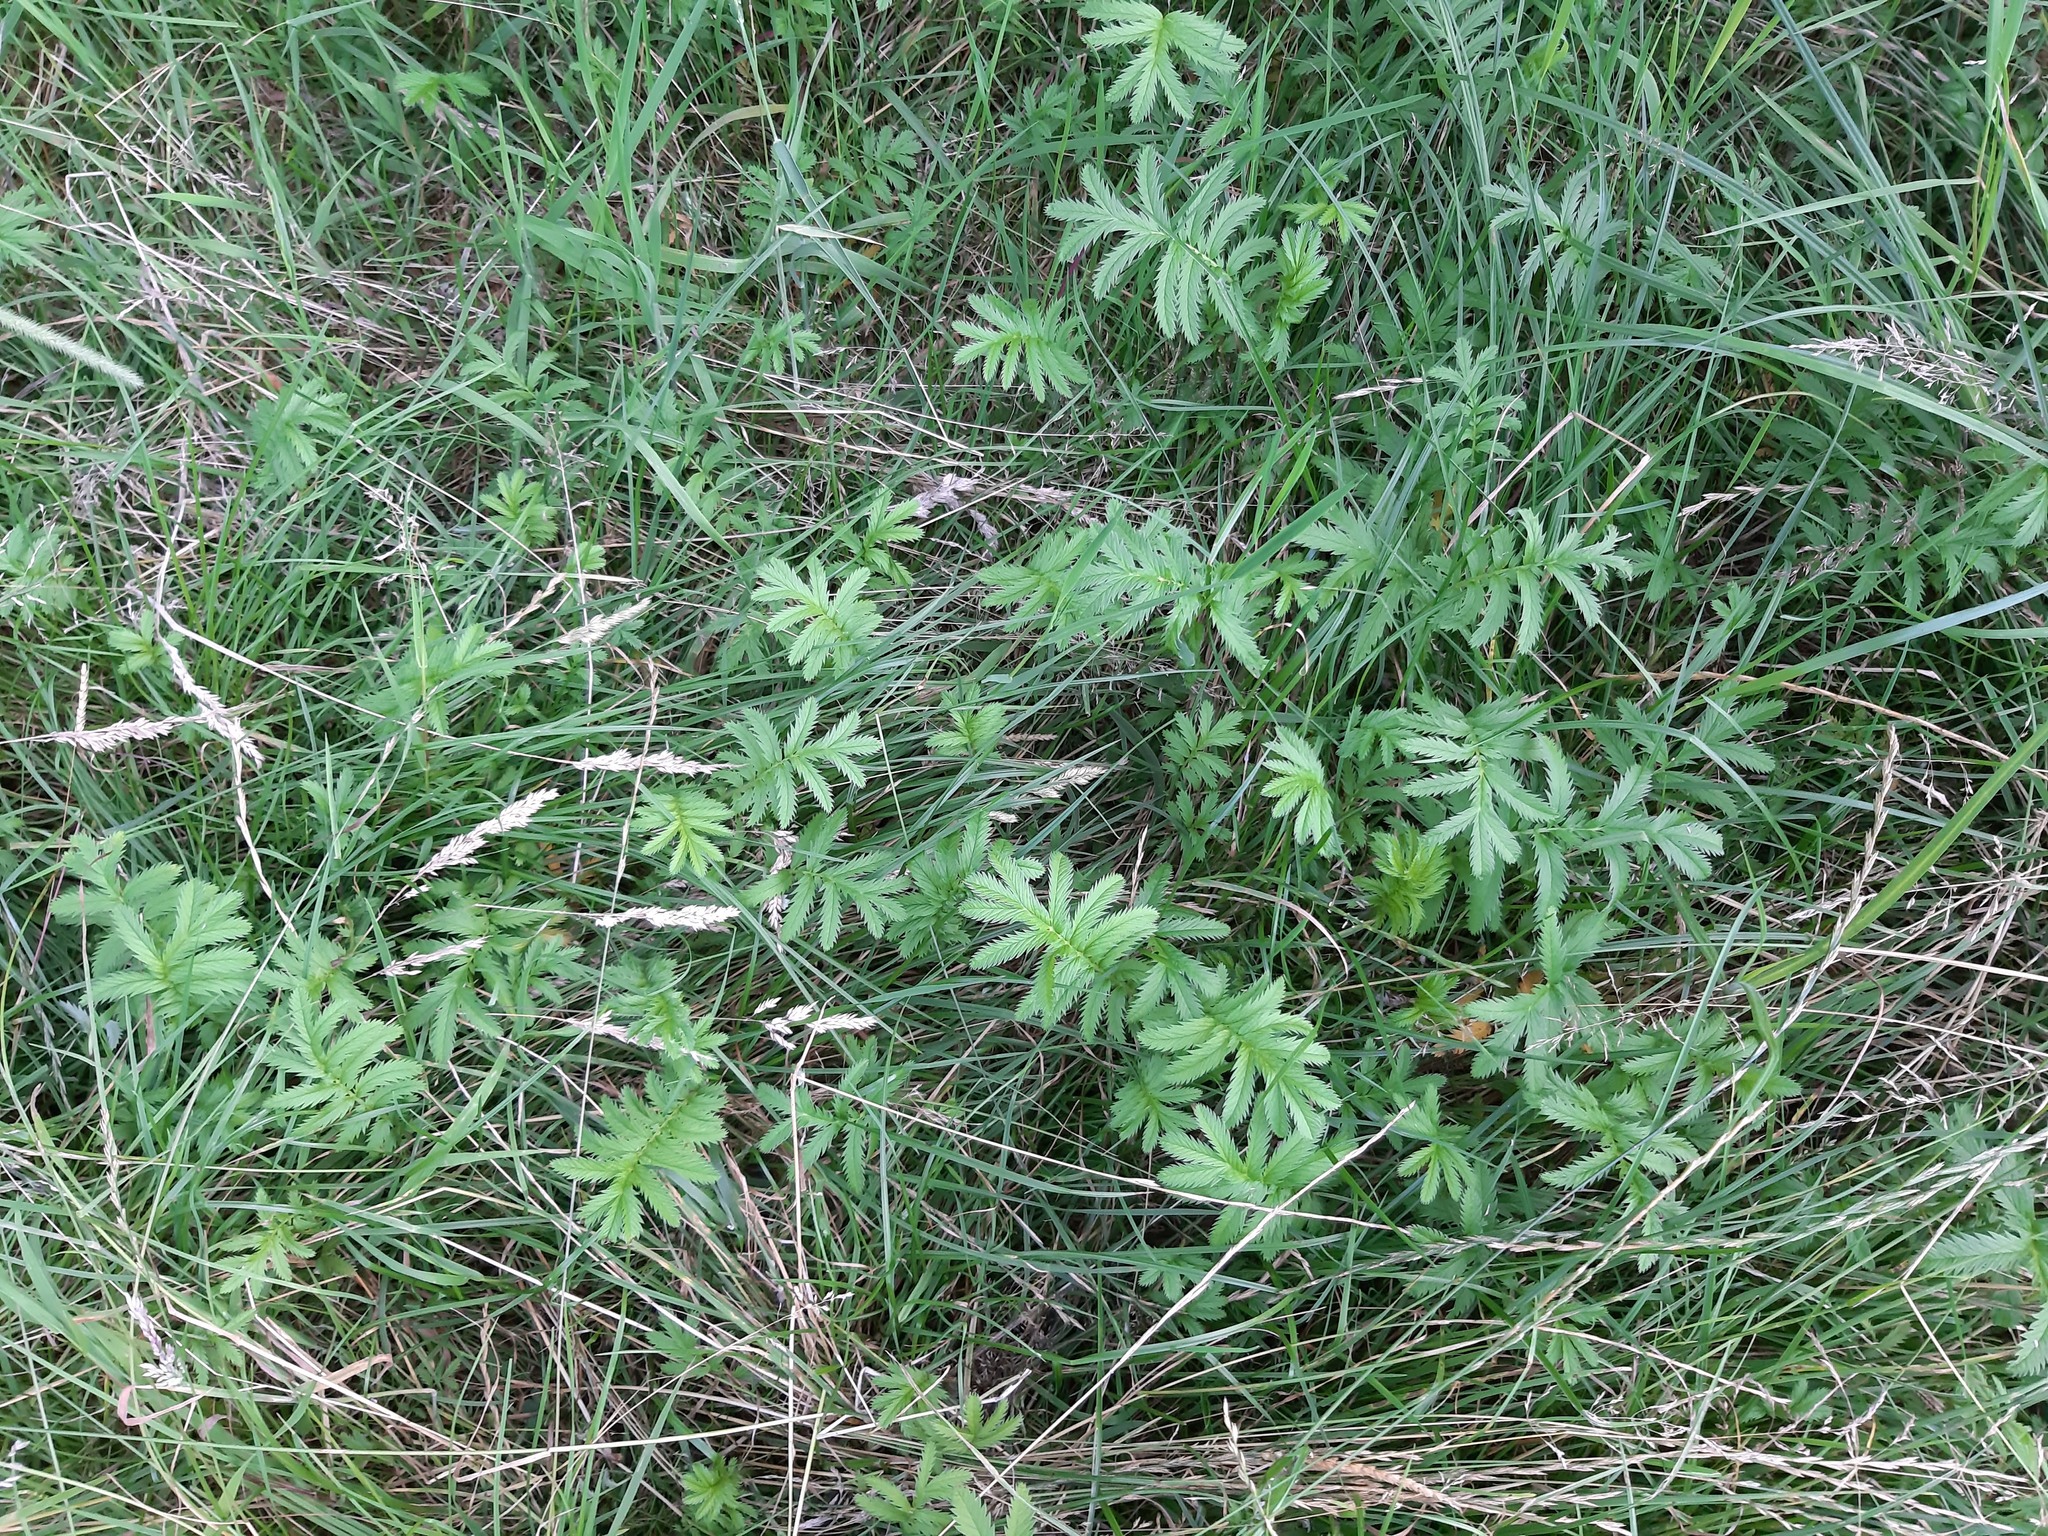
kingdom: Plantae
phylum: Tracheophyta
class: Magnoliopsida
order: Rosales
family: Rosaceae
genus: Argentina
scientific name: Argentina anserina
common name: Common silverweed
